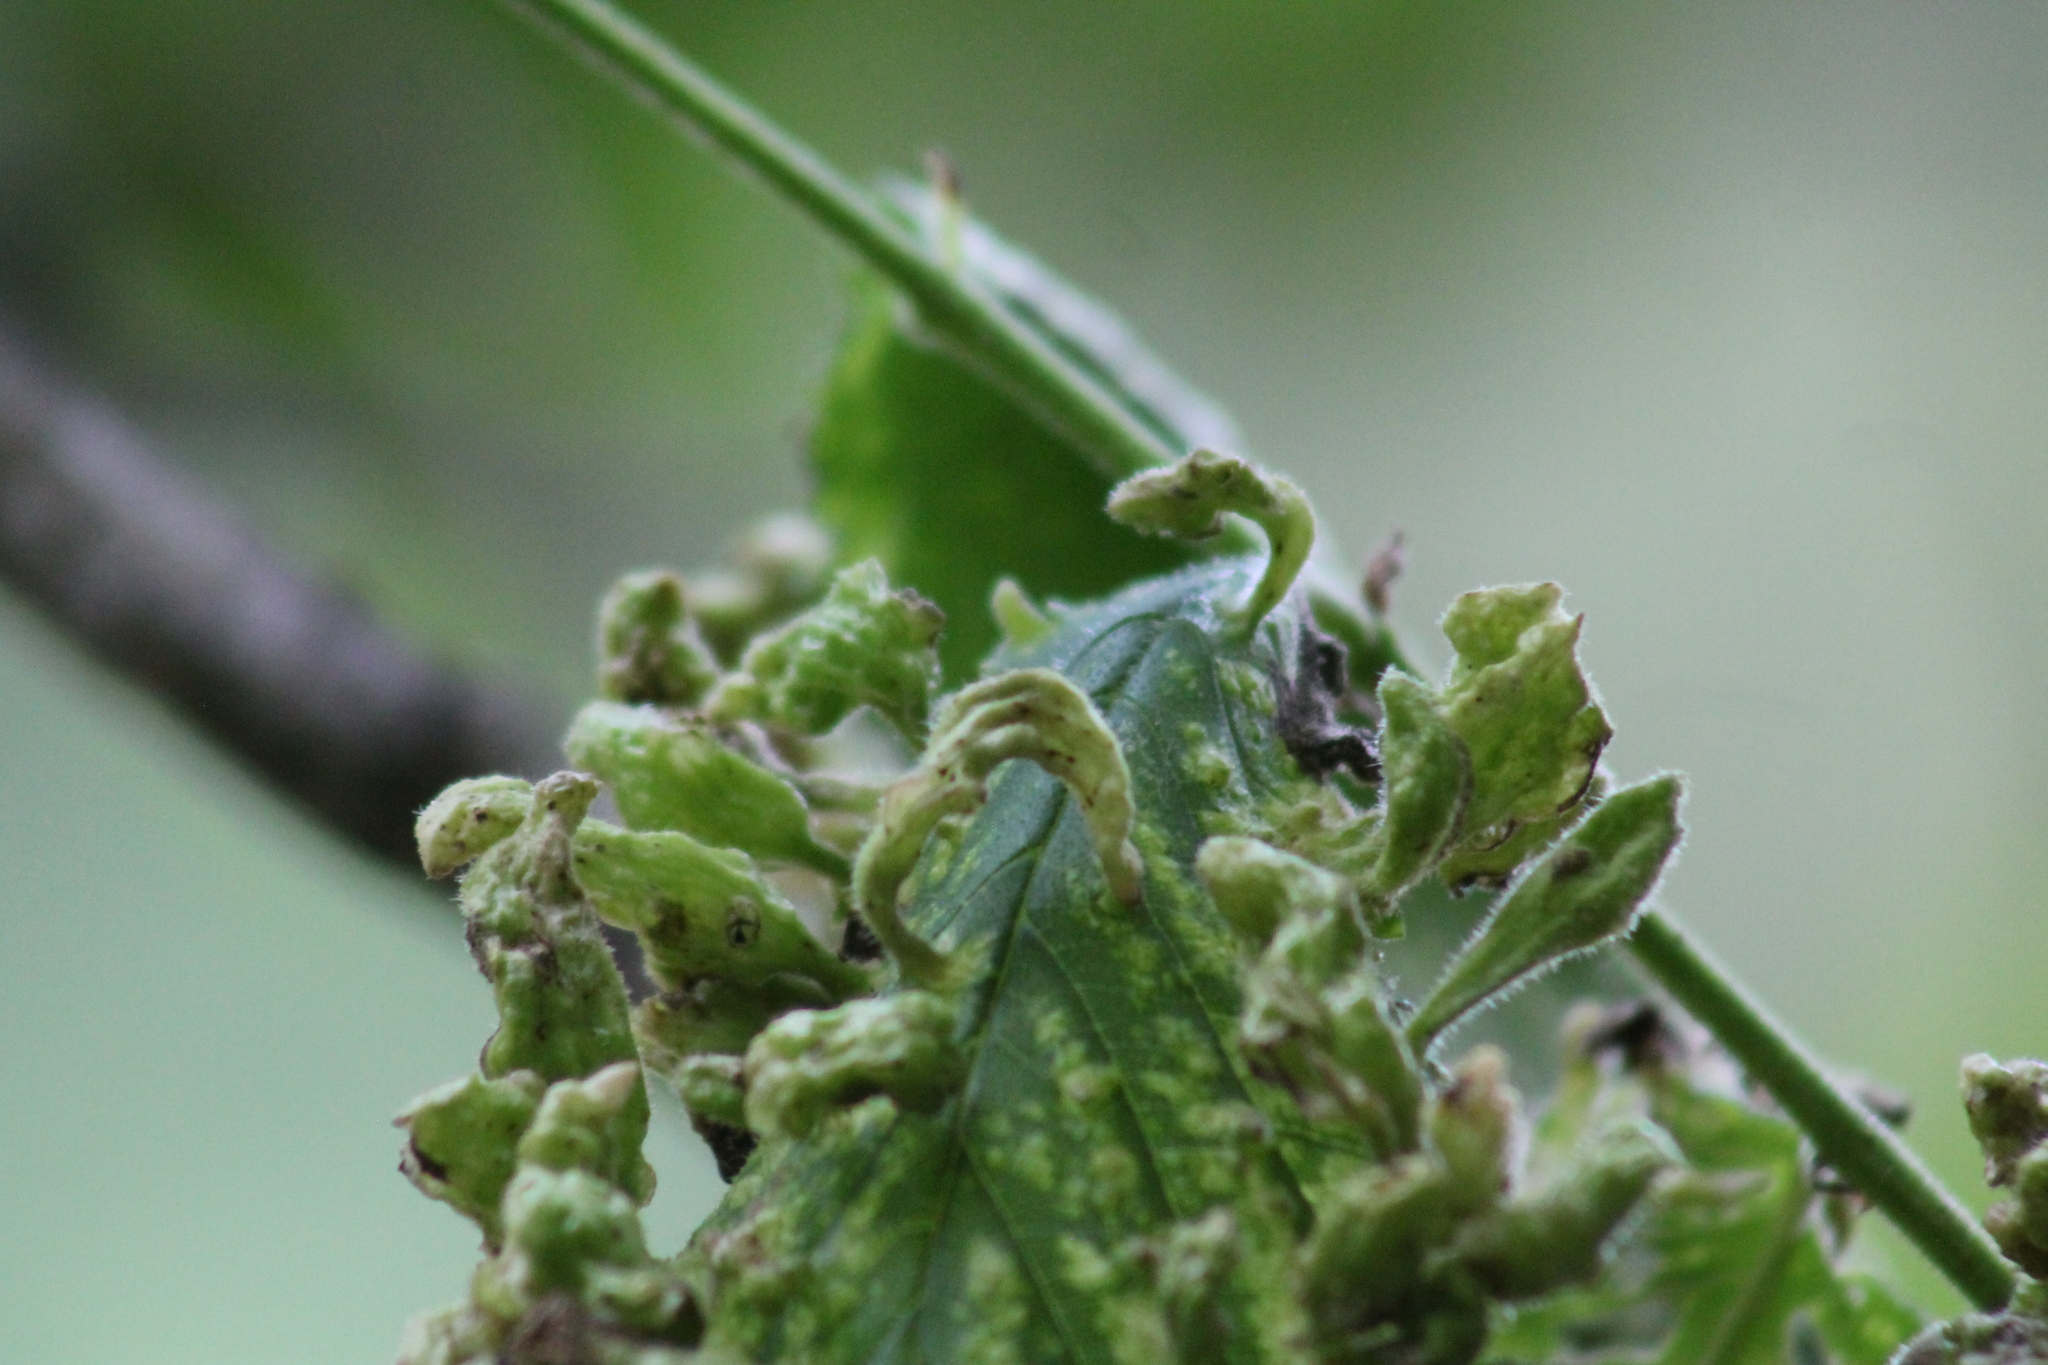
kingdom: Animalia
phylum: Arthropoda
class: Insecta
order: Hemiptera
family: Aphididae
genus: Tetraneura
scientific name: Tetraneura nigriabdominalis
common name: Aphid
